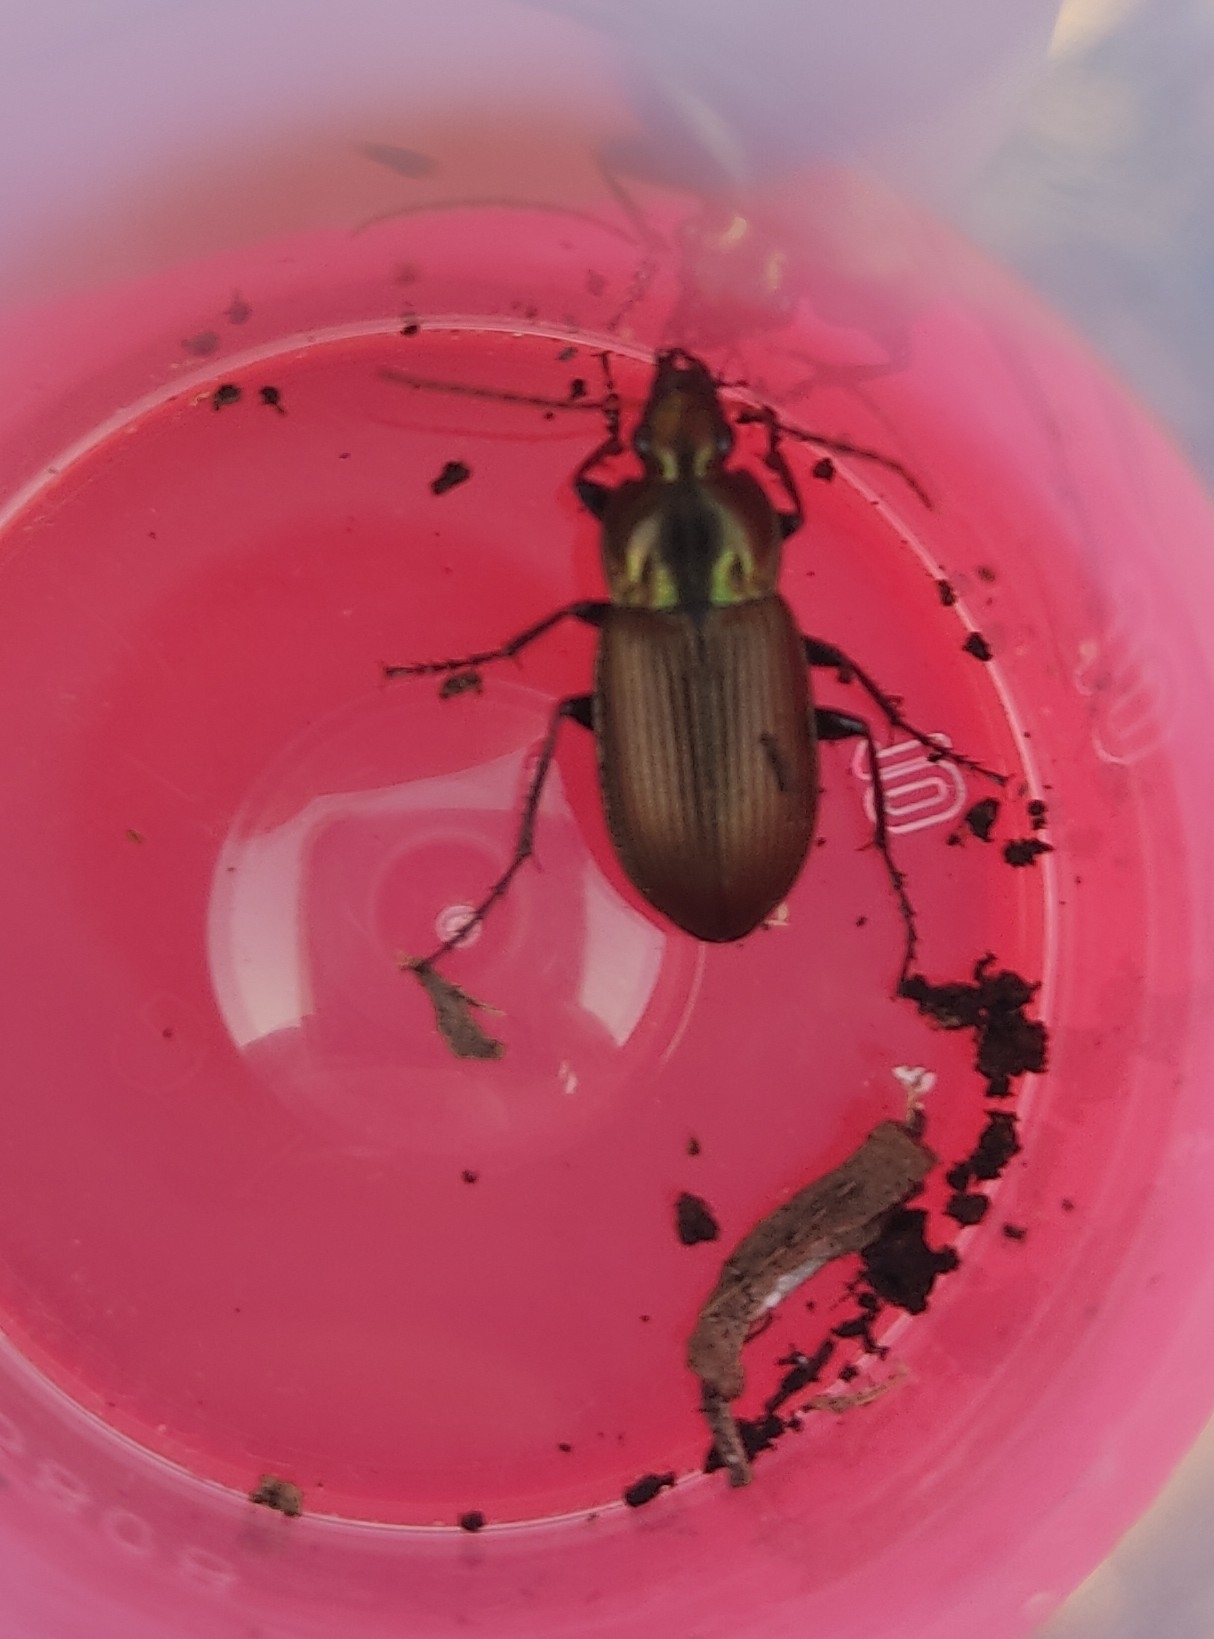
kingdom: Animalia
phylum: Arthropoda
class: Insecta
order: Coleoptera
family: Carabidae
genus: Poecilus
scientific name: Poecilus cupreus
